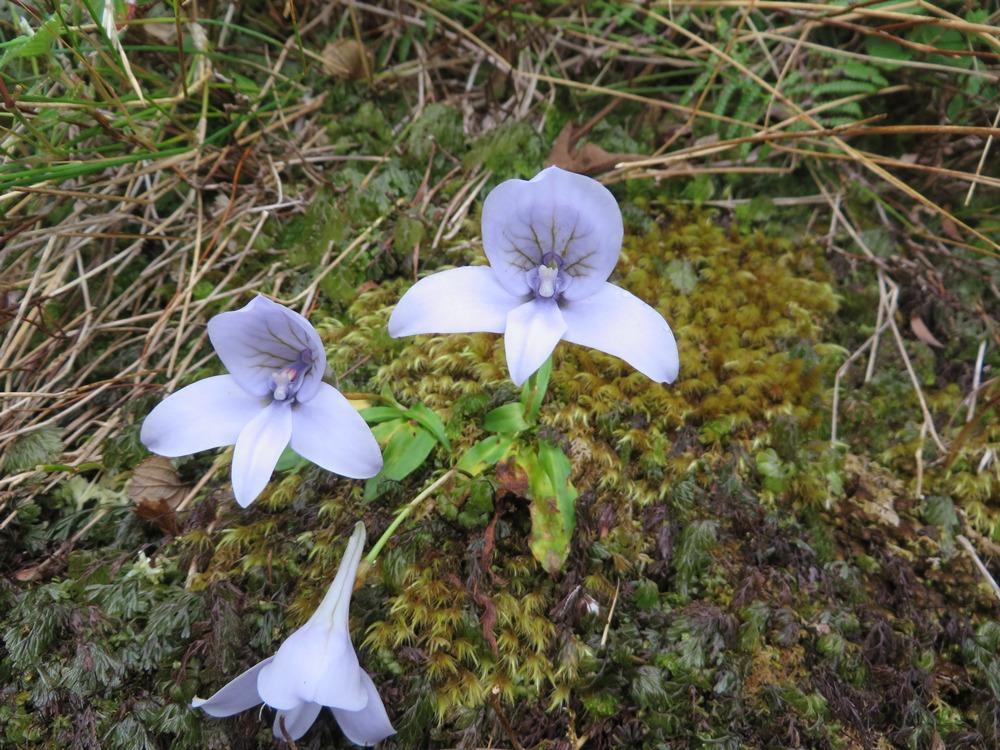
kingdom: Plantae
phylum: Tracheophyta
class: Liliopsida
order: Asparagales
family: Orchidaceae
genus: Disa
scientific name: Disa longicornu
